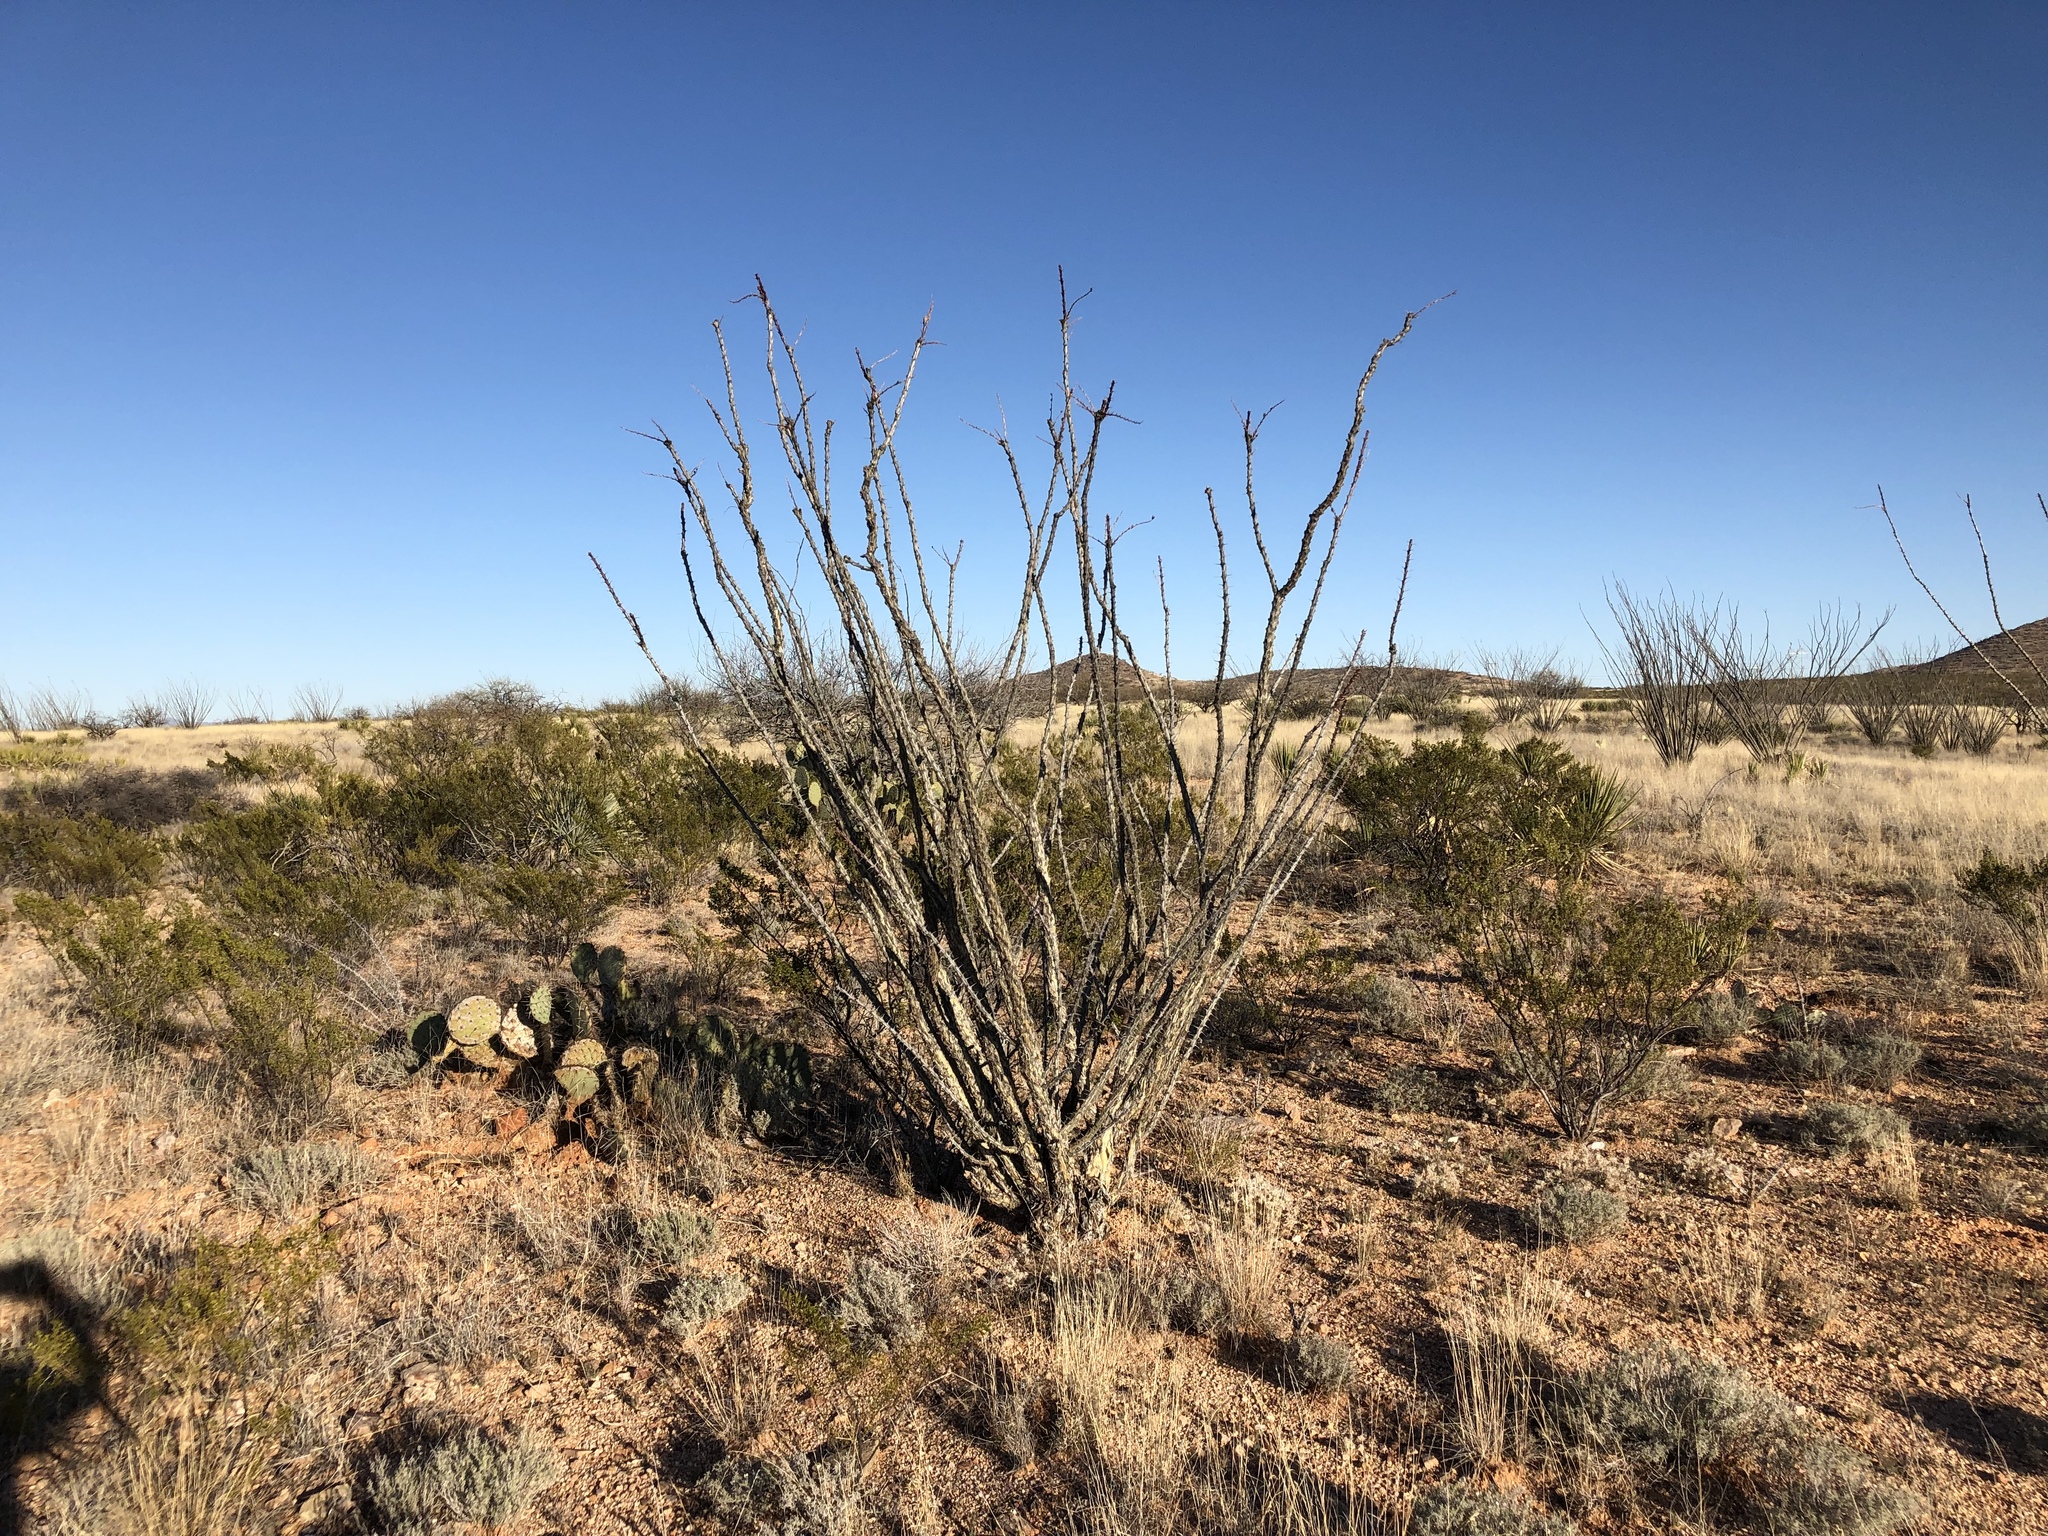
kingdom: Plantae
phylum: Tracheophyta
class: Magnoliopsida
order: Ericales
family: Fouquieriaceae
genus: Fouquieria
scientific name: Fouquieria splendens
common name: Vine-cactus
